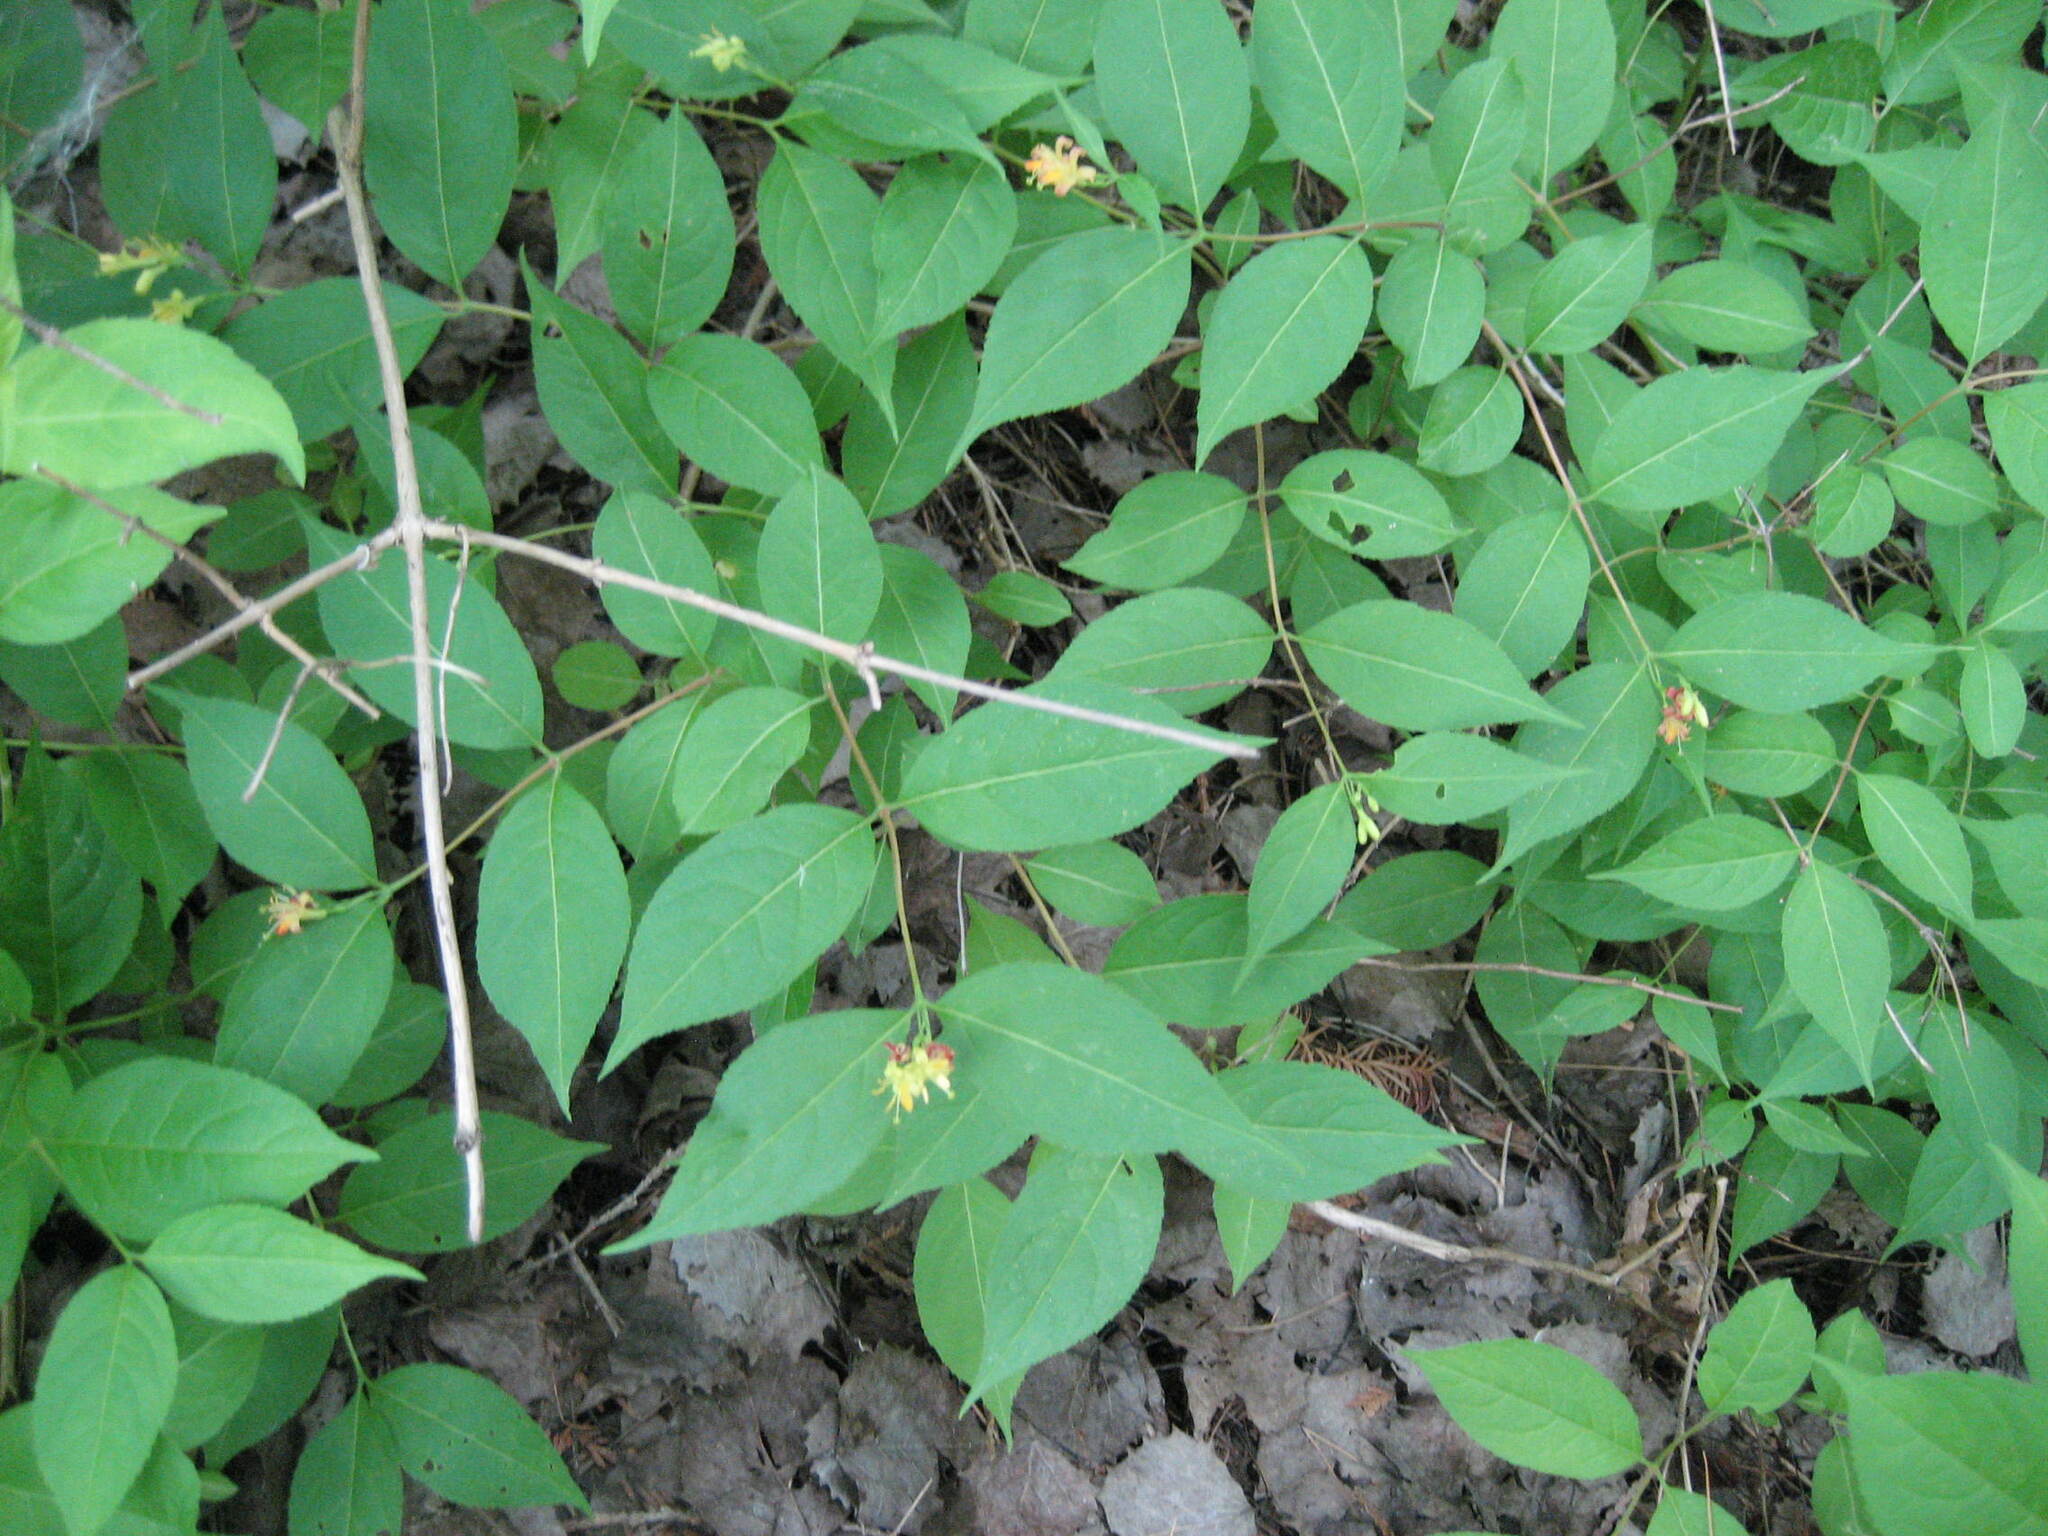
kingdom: Plantae
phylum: Tracheophyta
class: Magnoliopsida
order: Dipsacales
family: Caprifoliaceae
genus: Diervilla
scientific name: Diervilla lonicera
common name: Bush-honeysuckle
